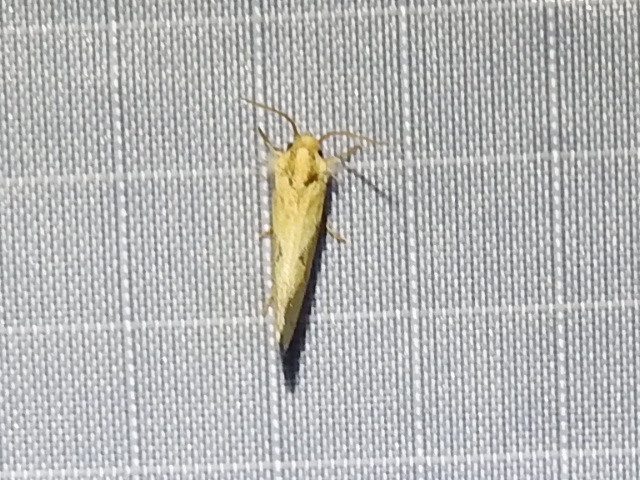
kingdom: Animalia
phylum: Arthropoda
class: Insecta
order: Lepidoptera
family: Tineidae
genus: Acrolophus
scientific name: Acrolophus laticapitana
